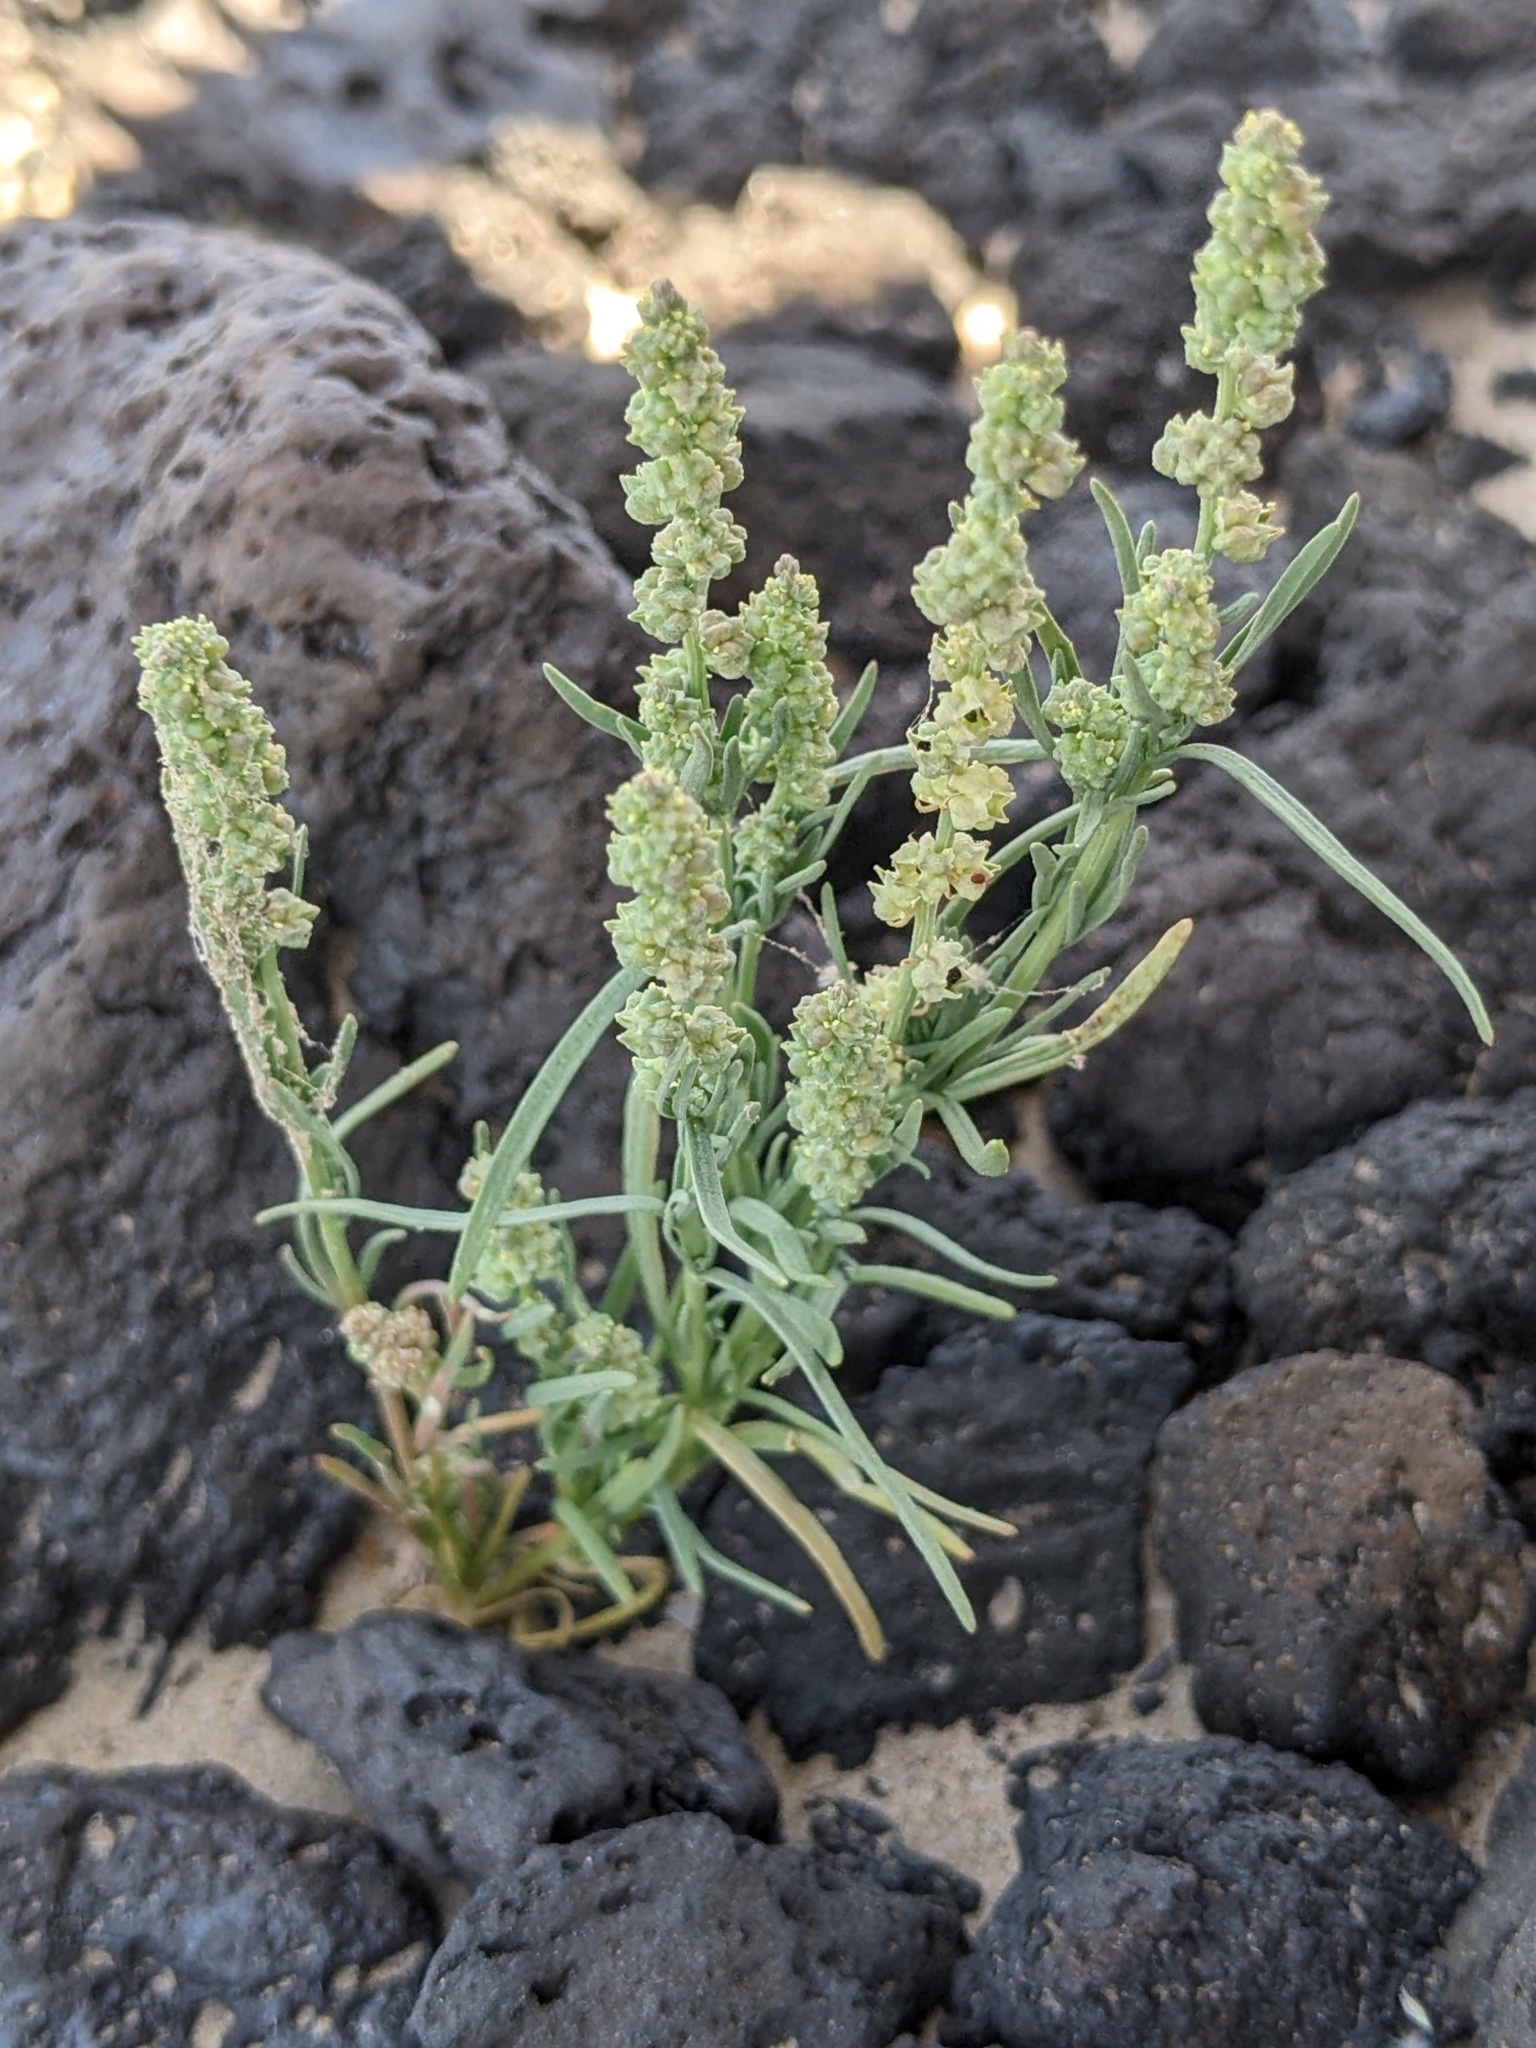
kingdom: Plantae
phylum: Tracheophyta
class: Magnoliopsida
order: Brassicales
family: Resedaceae
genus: Oligomeris
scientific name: Oligomeris linifolia
